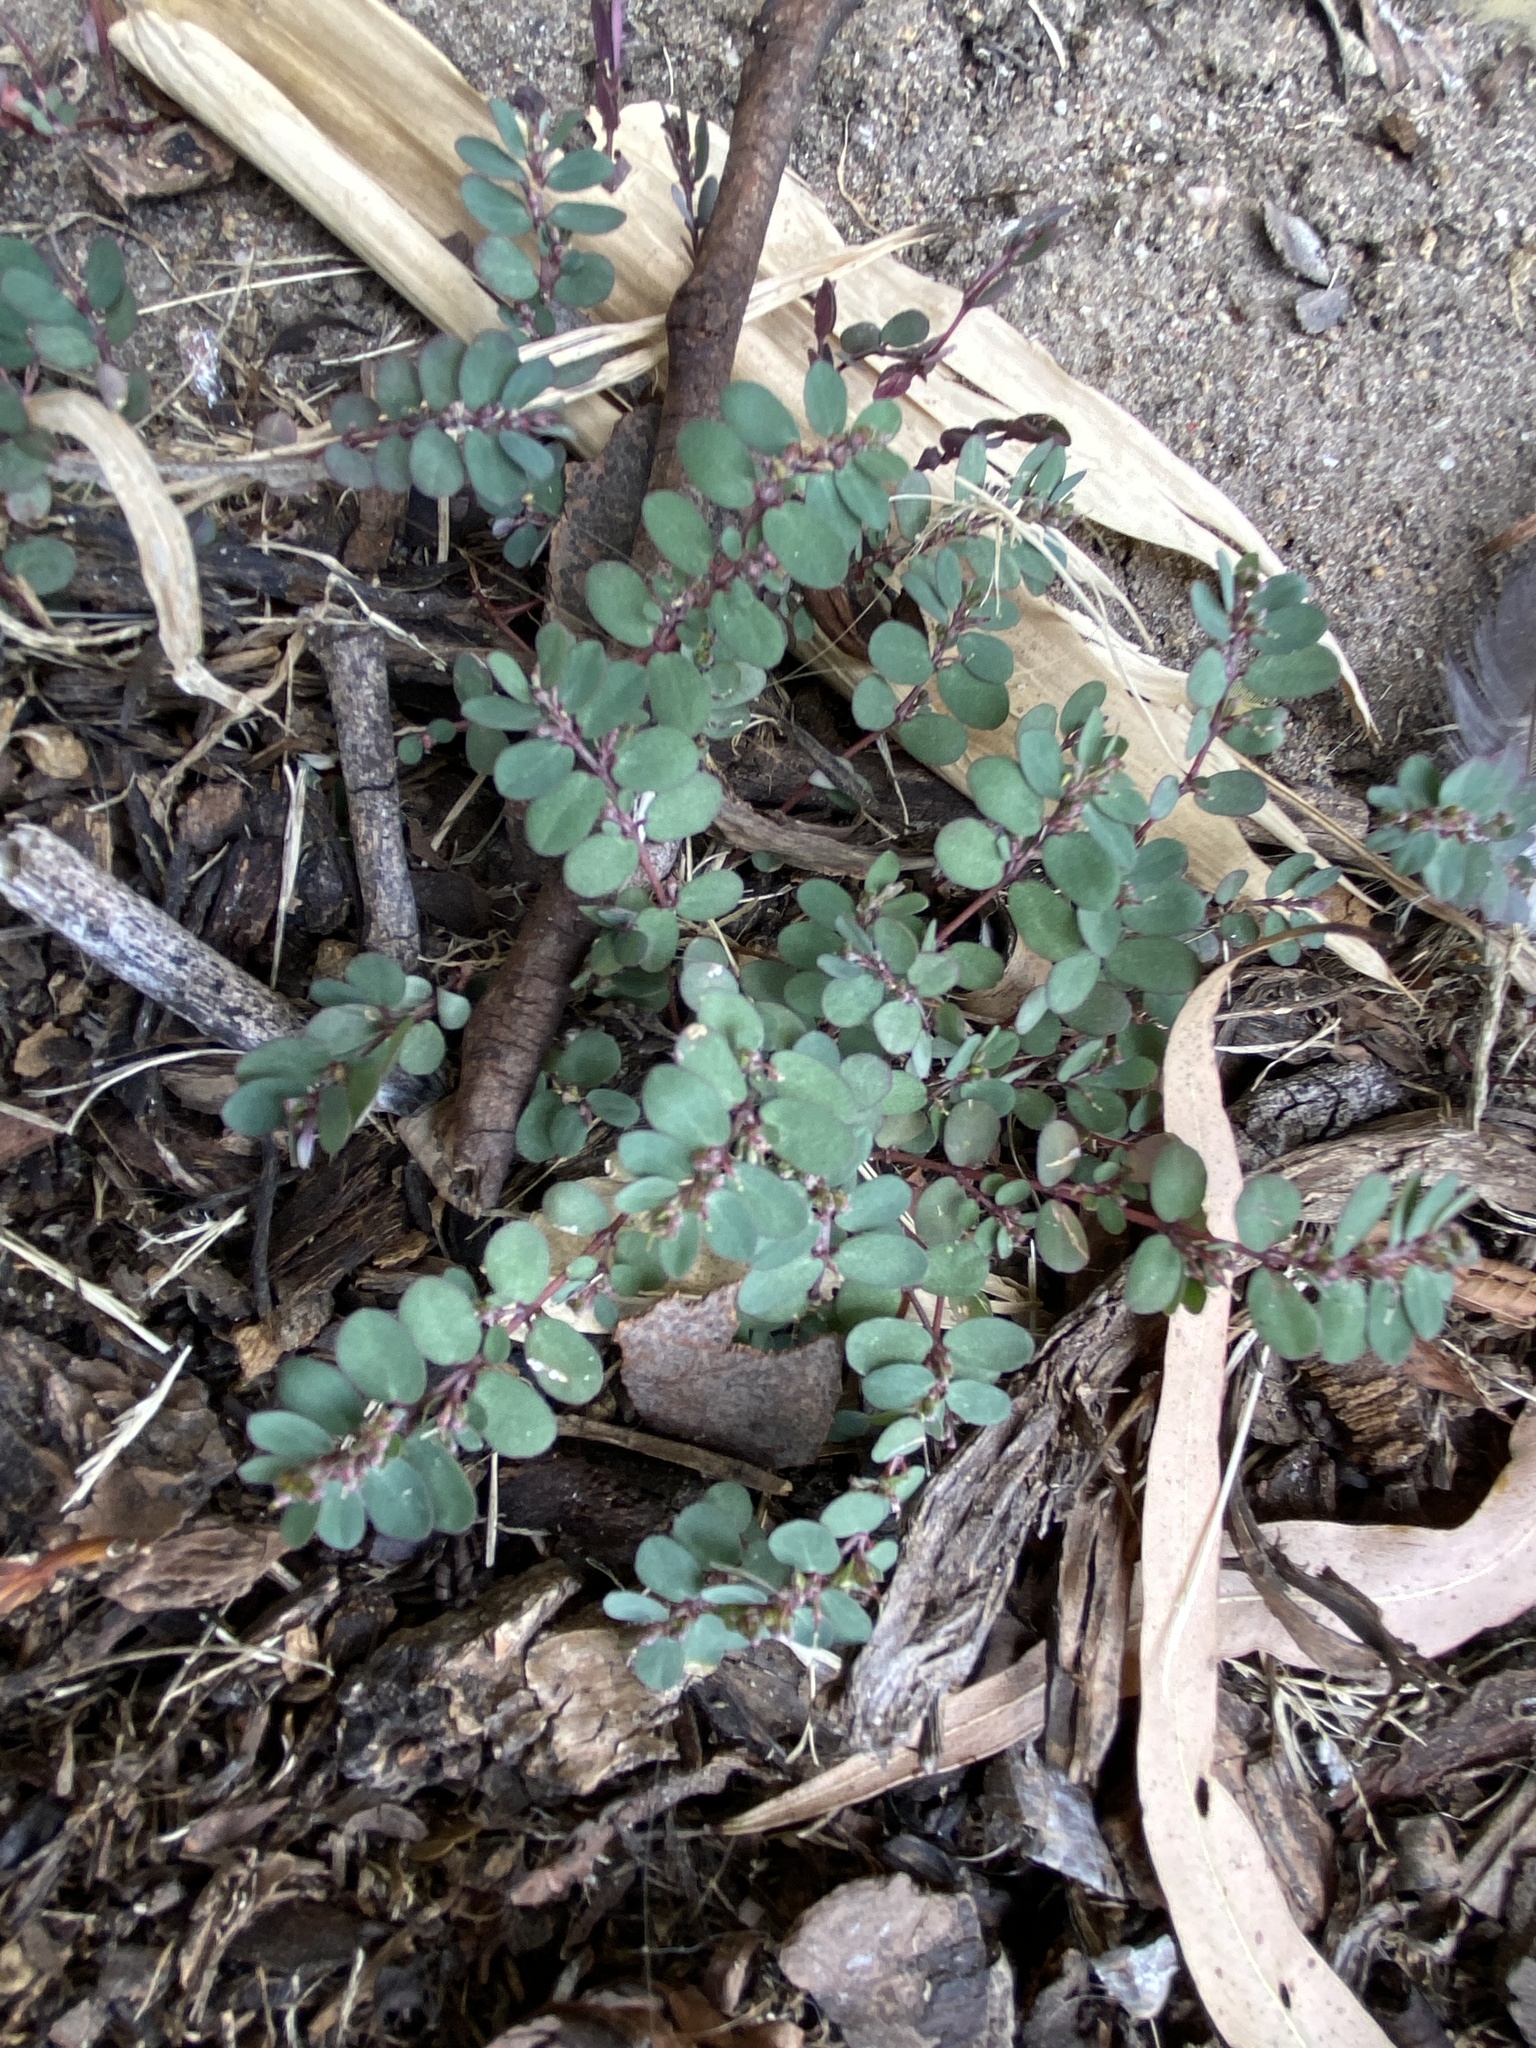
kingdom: Plantae
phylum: Tracheophyta
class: Magnoliopsida
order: Malpighiales
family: Euphorbiaceae
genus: Euphorbia
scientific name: Euphorbia prostrata
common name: Prostrate sandmat
